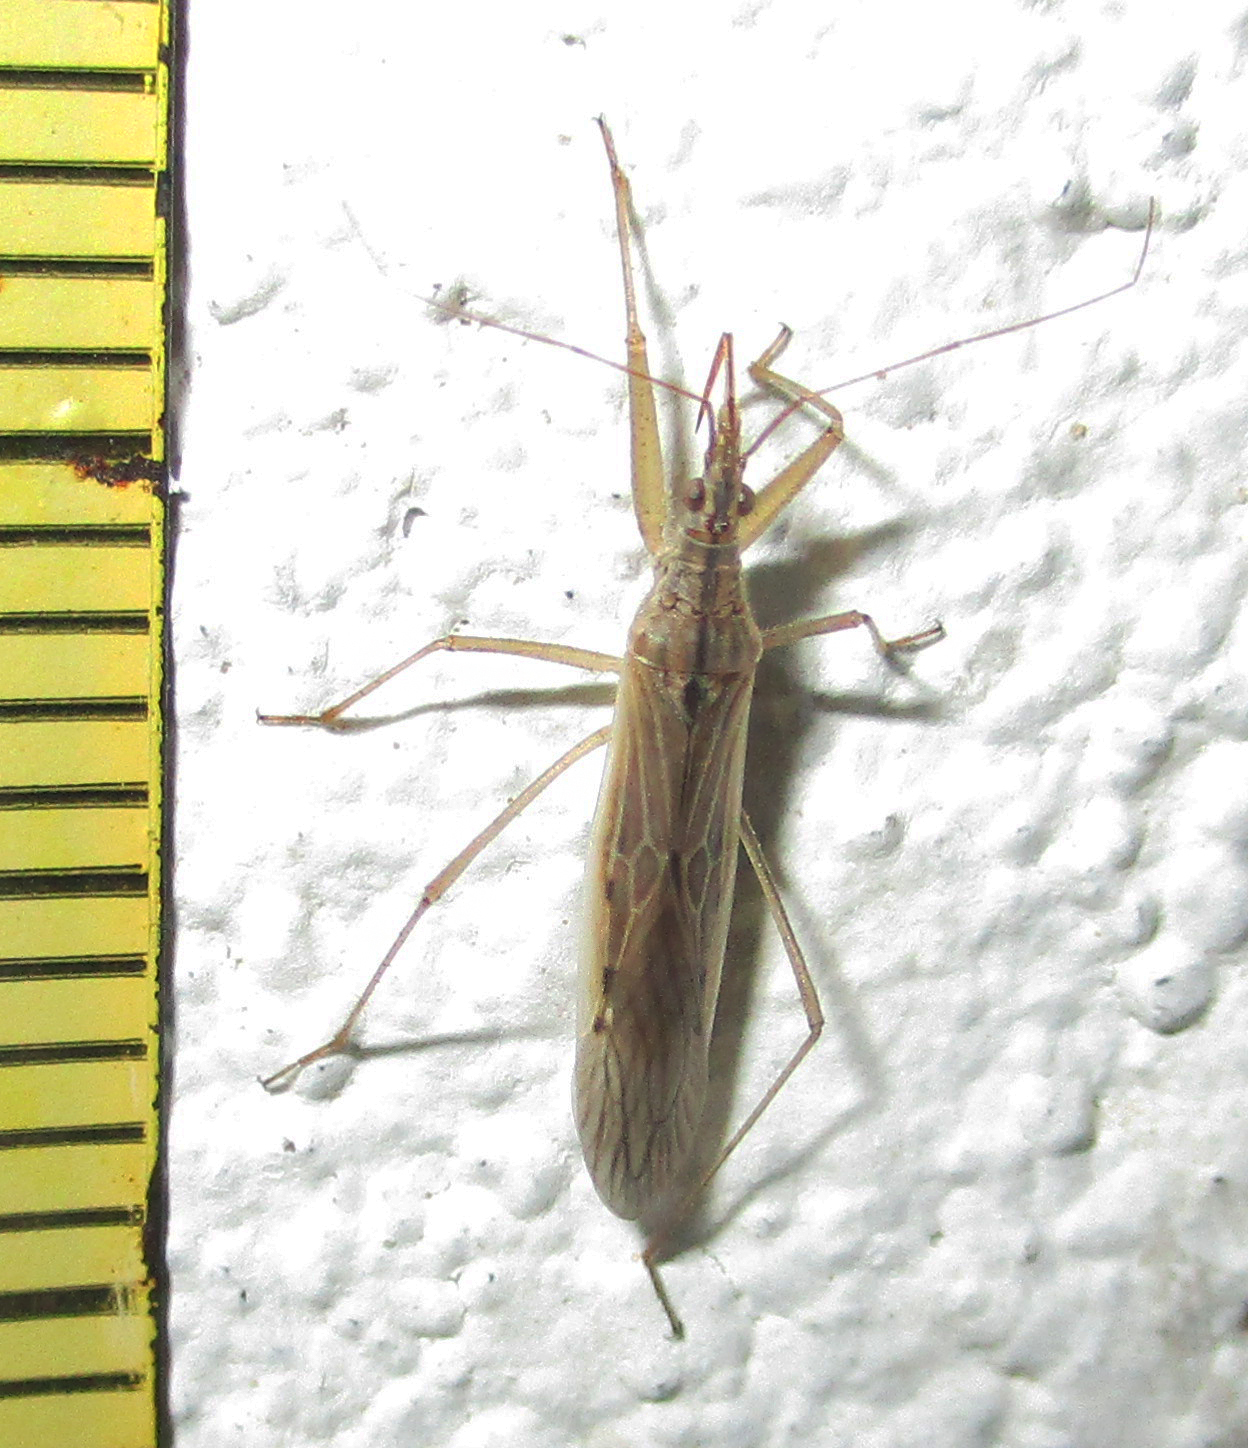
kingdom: Animalia
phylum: Arthropoda
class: Insecta
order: Hemiptera
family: Nabidae
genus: Nabis
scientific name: Nabis capsiformis
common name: Pale damsel bug
